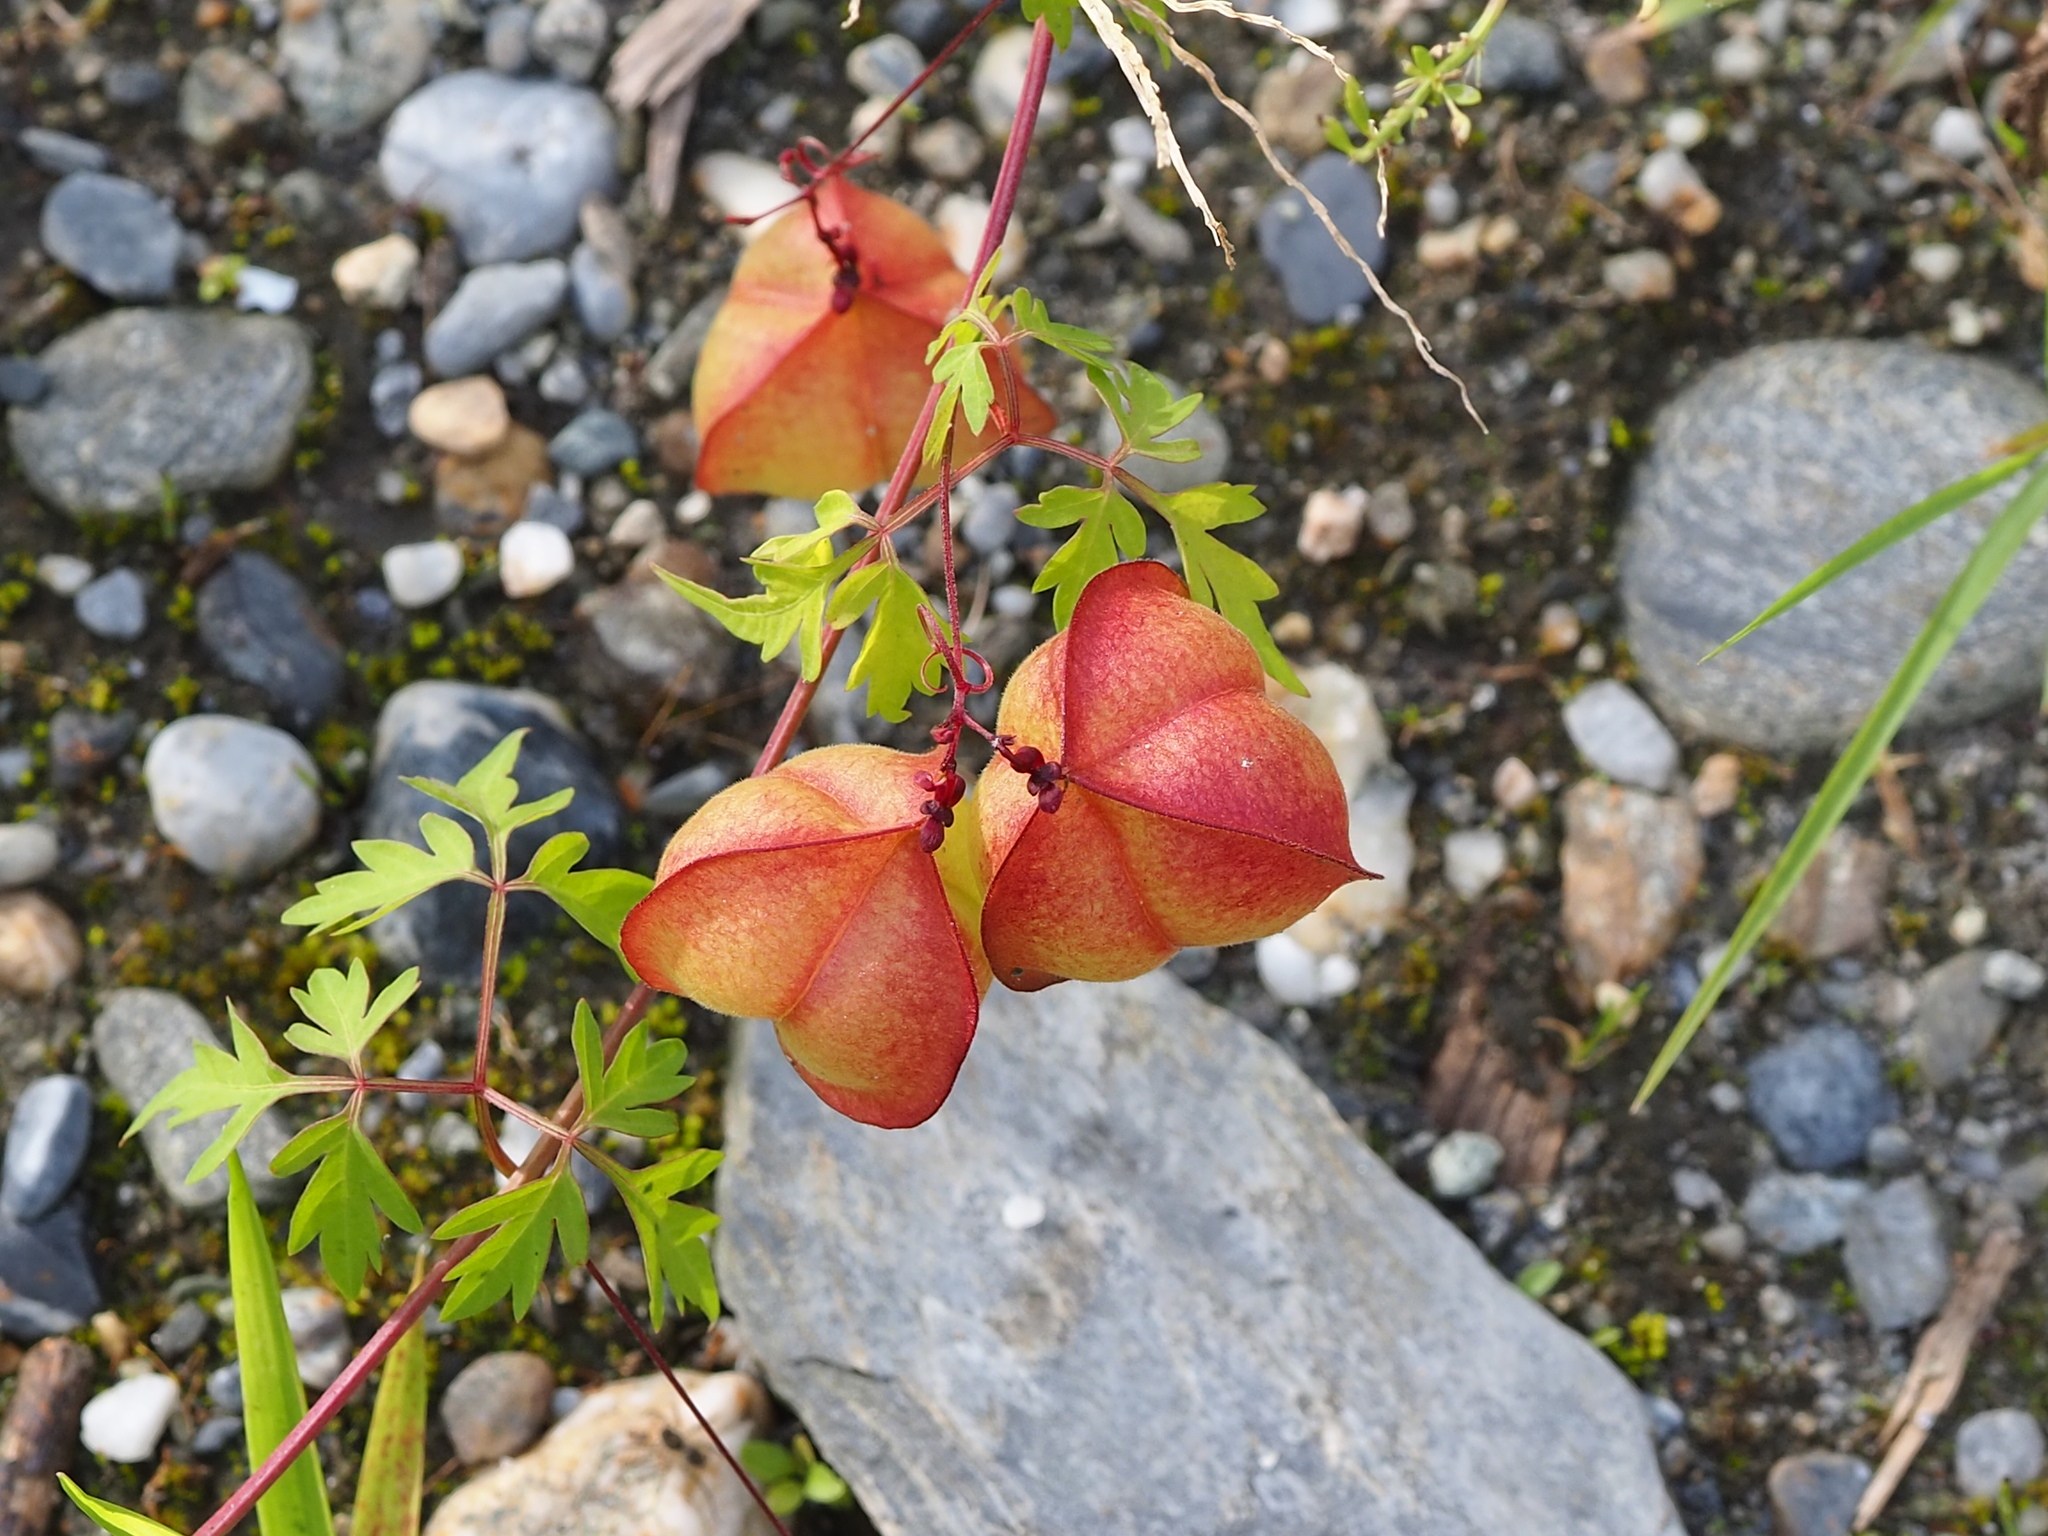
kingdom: Plantae
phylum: Tracheophyta
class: Magnoliopsida
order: Sapindales
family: Sapindaceae
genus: Cardiospermum
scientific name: Cardiospermum halicacabum
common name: Balloon vine
